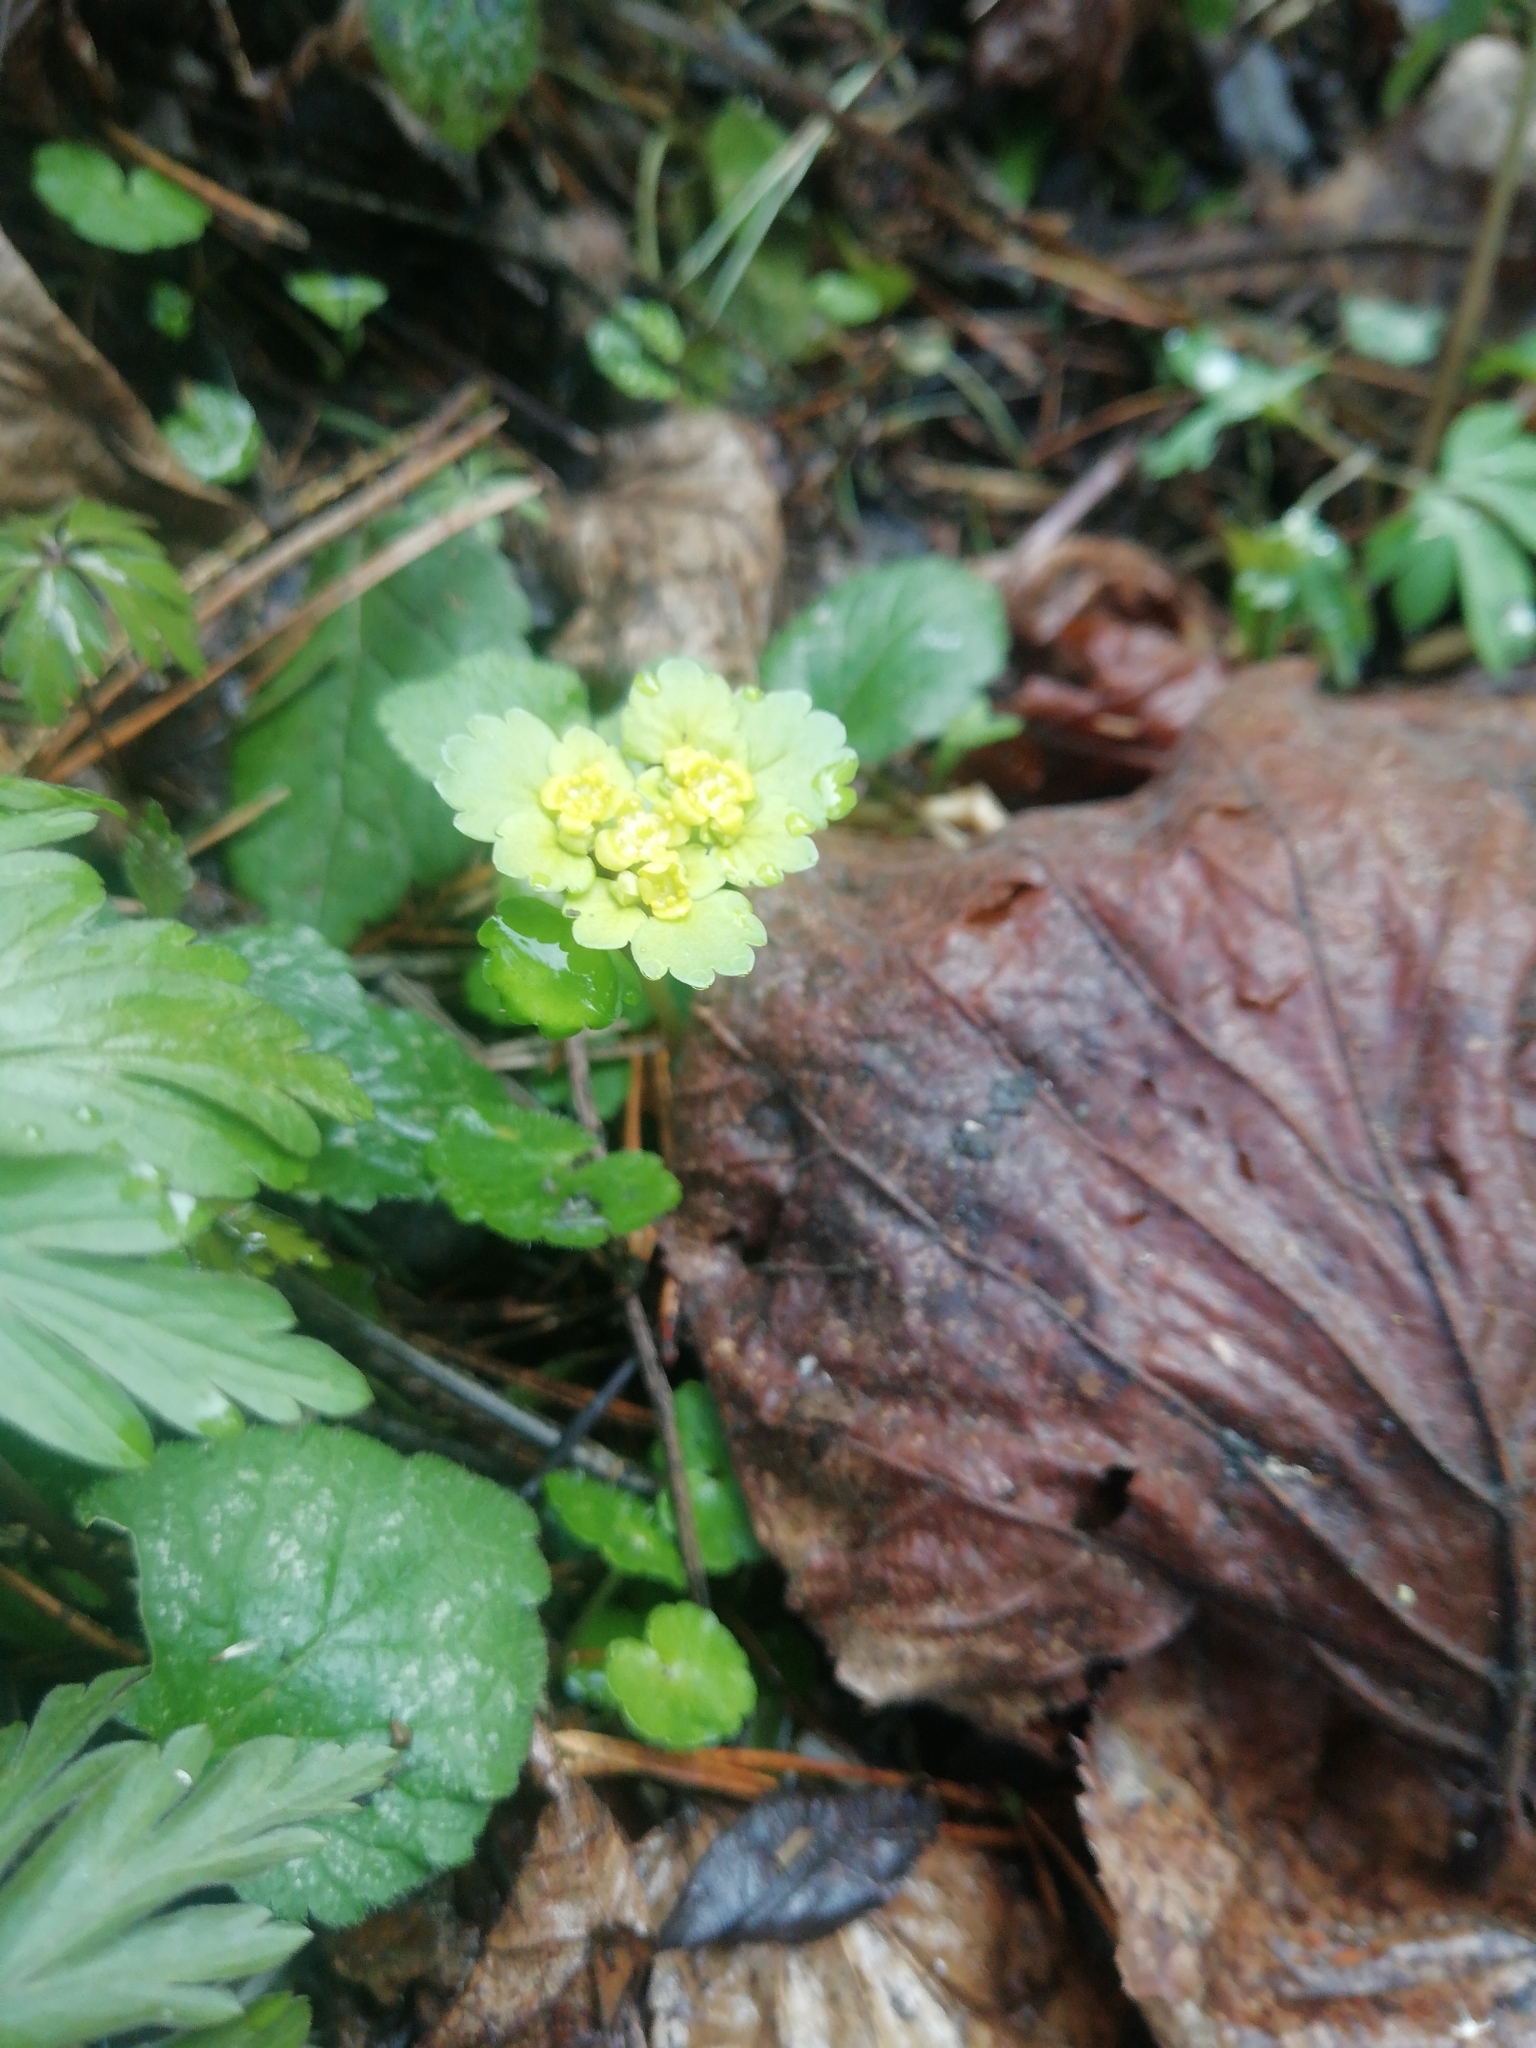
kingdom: Plantae
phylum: Tracheophyta
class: Magnoliopsida
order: Saxifragales
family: Saxifragaceae
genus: Chrysosplenium
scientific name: Chrysosplenium alternifolium
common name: Alternate-leaved golden-saxifrage
